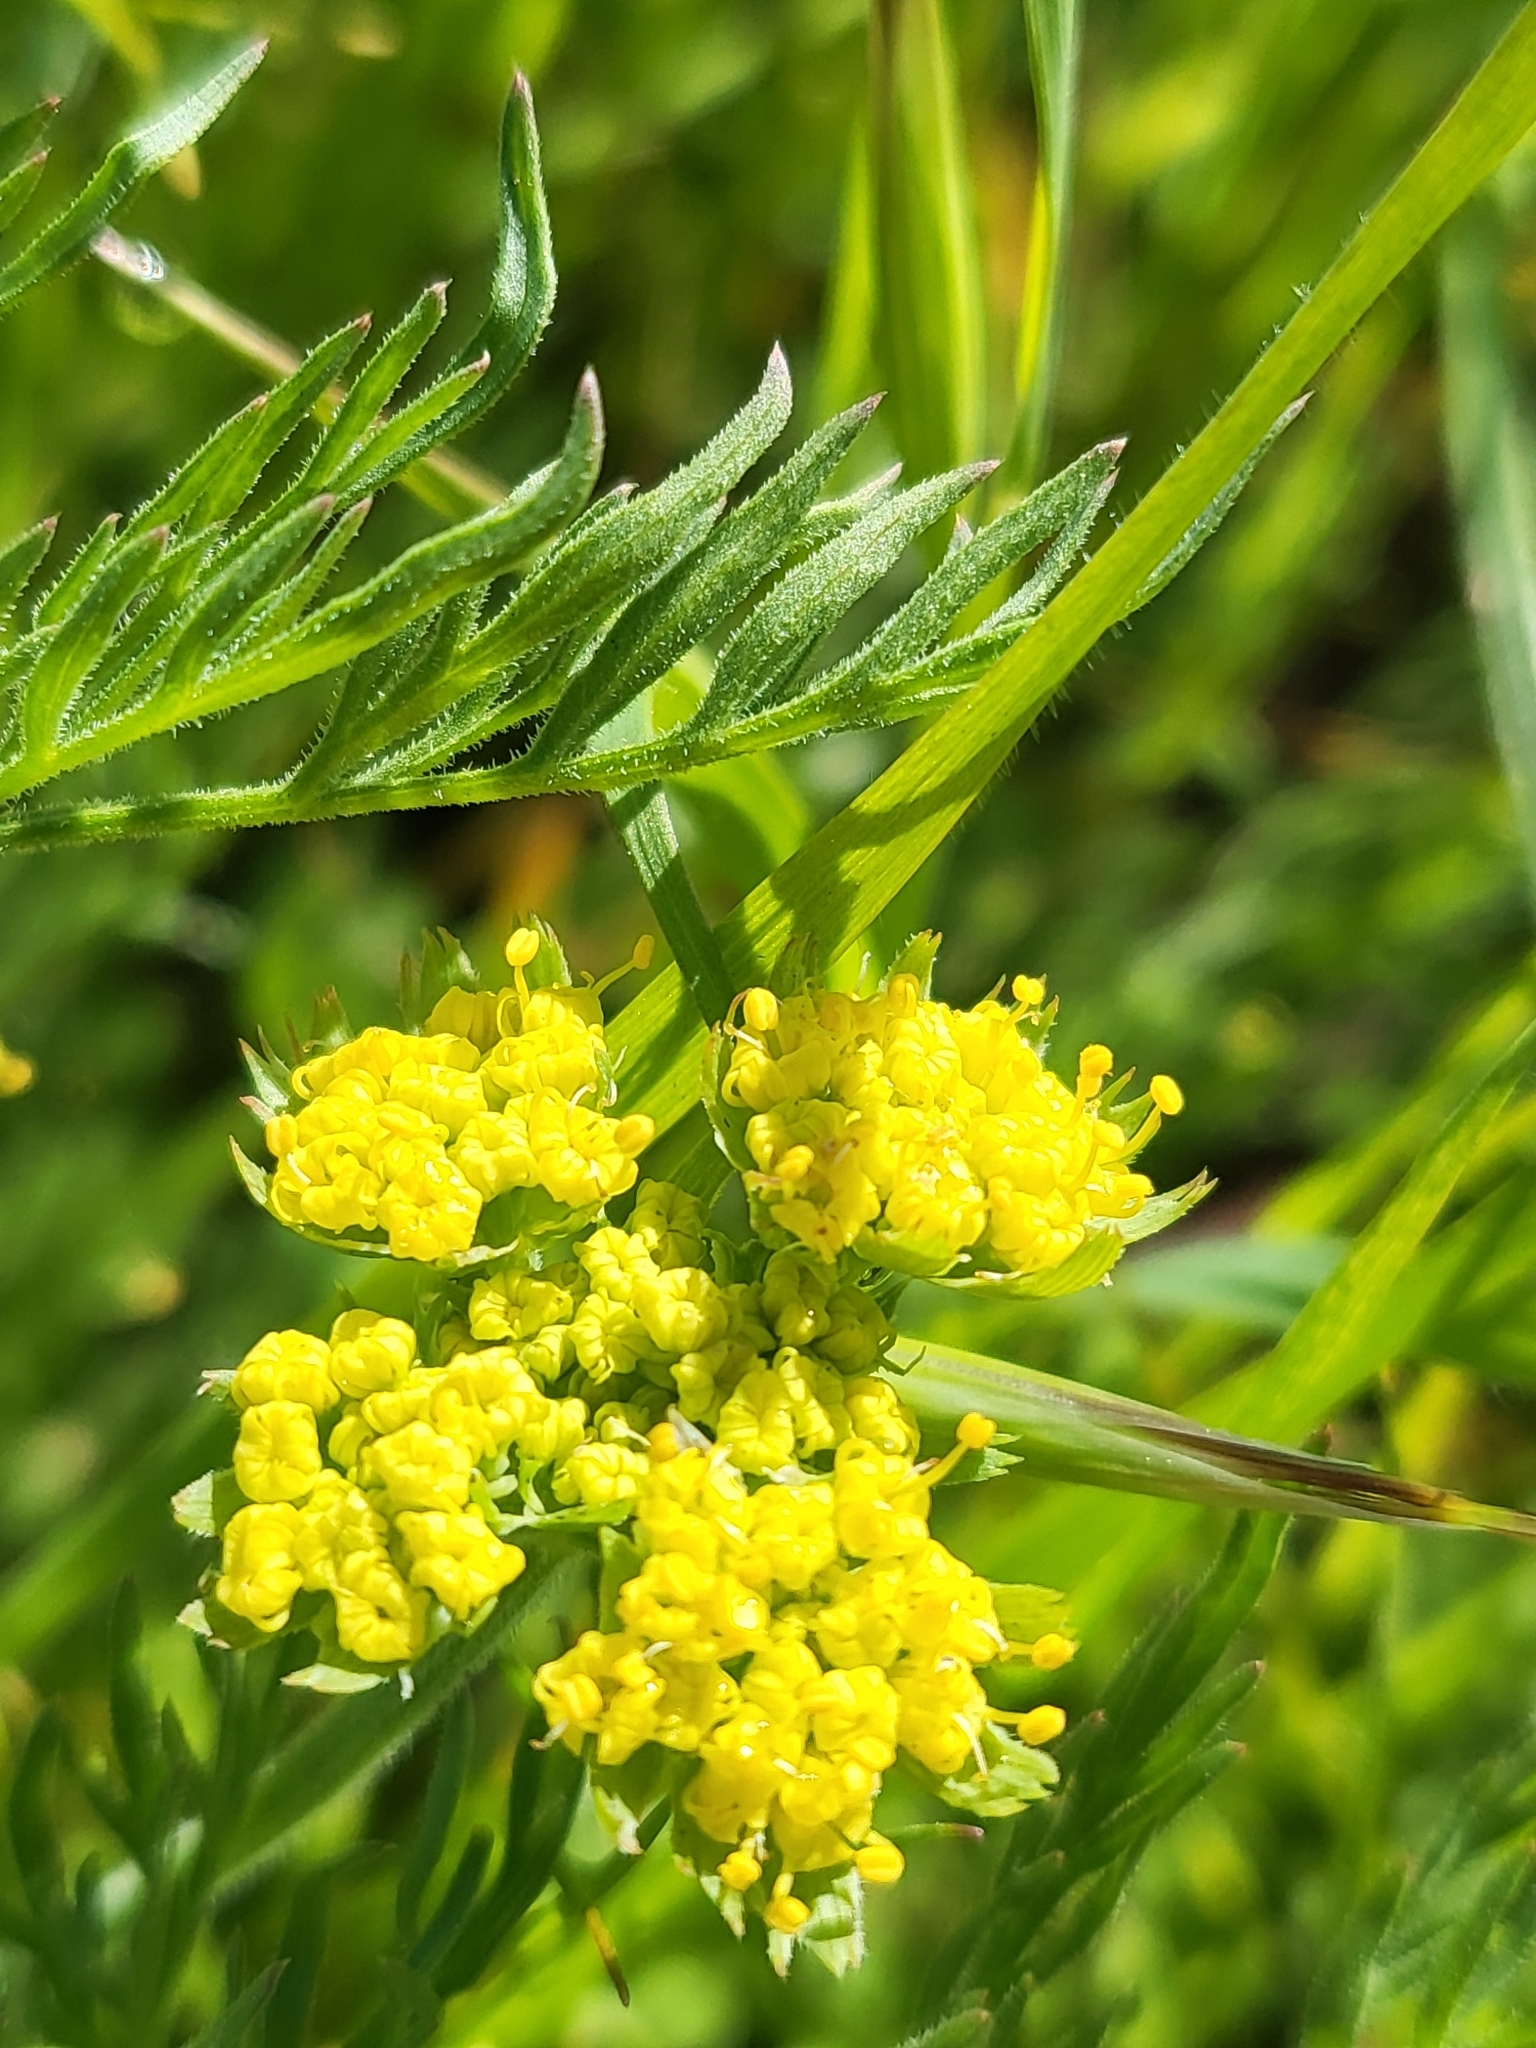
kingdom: Plantae
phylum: Tracheophyta
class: Magnoliopsida
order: Apiales
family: Apiaceae
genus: Lomatium
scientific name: Lomatium caruifolium
